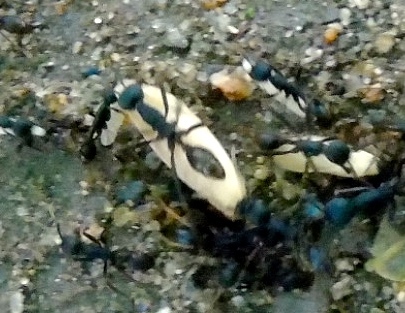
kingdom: Animalia
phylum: Arthropoda
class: Insecta
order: Hymenoptera
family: Formicidae
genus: Eciton
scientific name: Eciton burchellii
